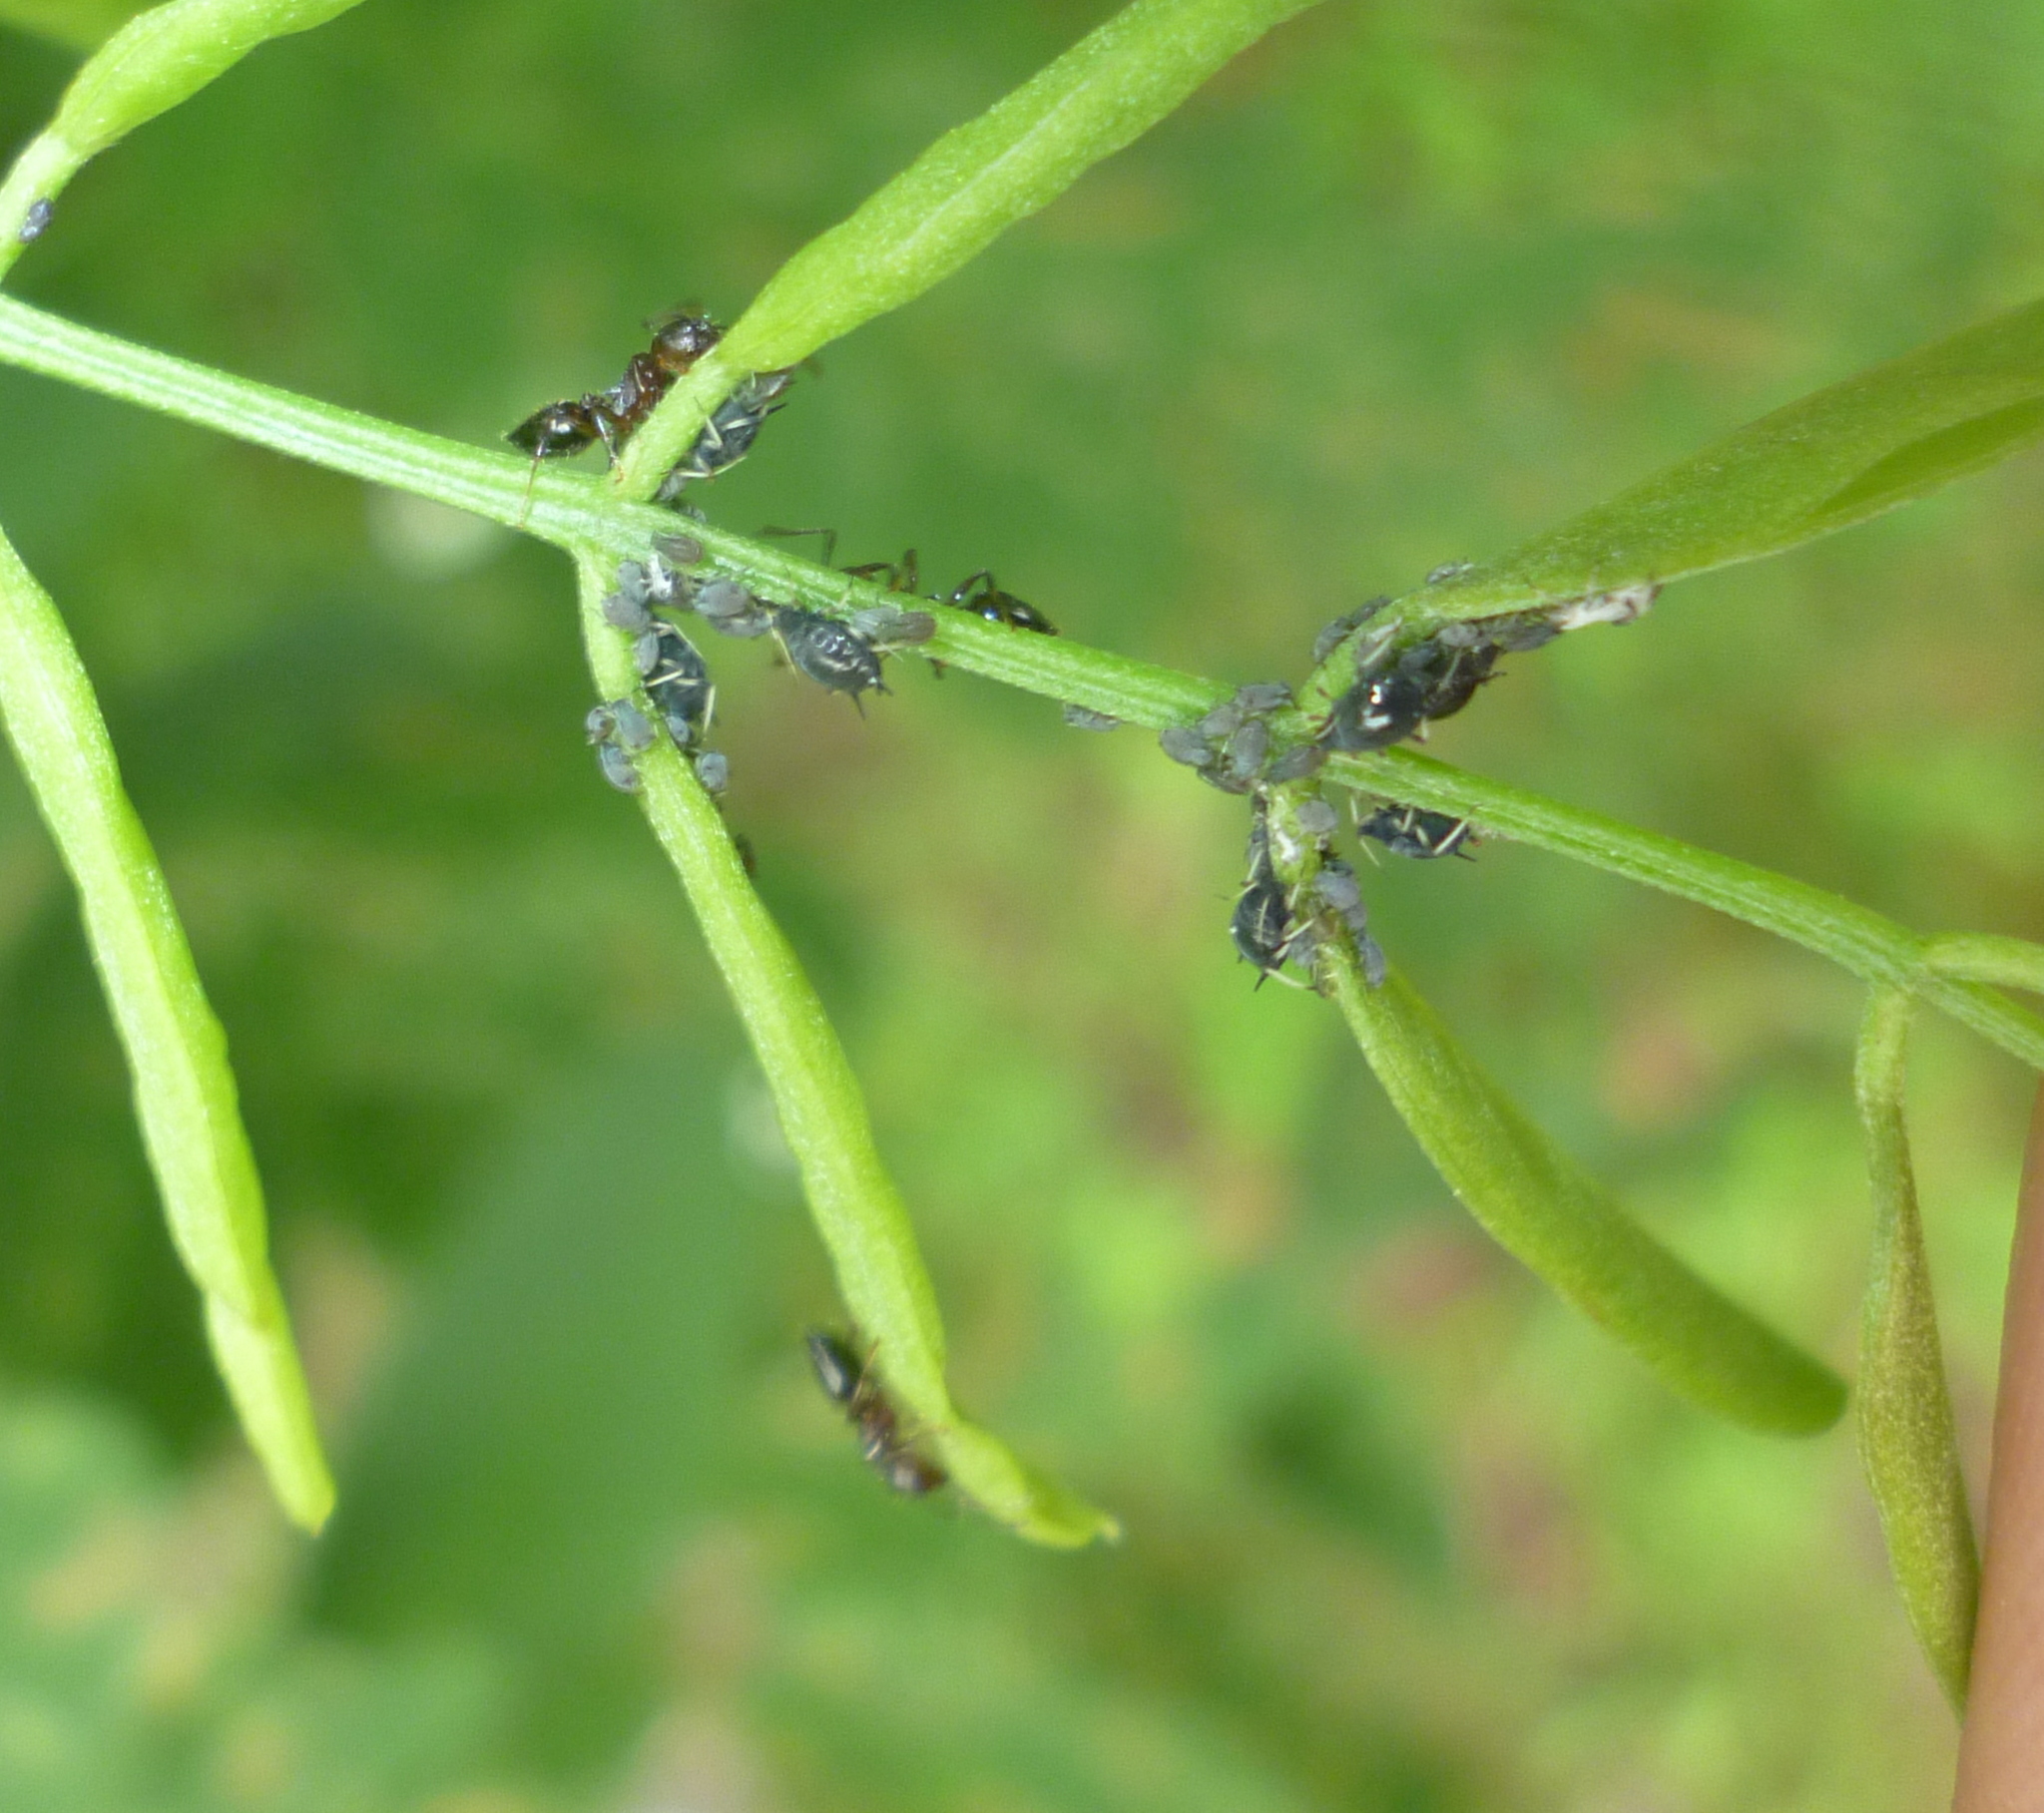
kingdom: Animalia
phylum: Arthropoda
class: Insecta
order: Hemiptera
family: Aphididae
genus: Aphis
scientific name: Aphis craccivora
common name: Cowpea aphid
